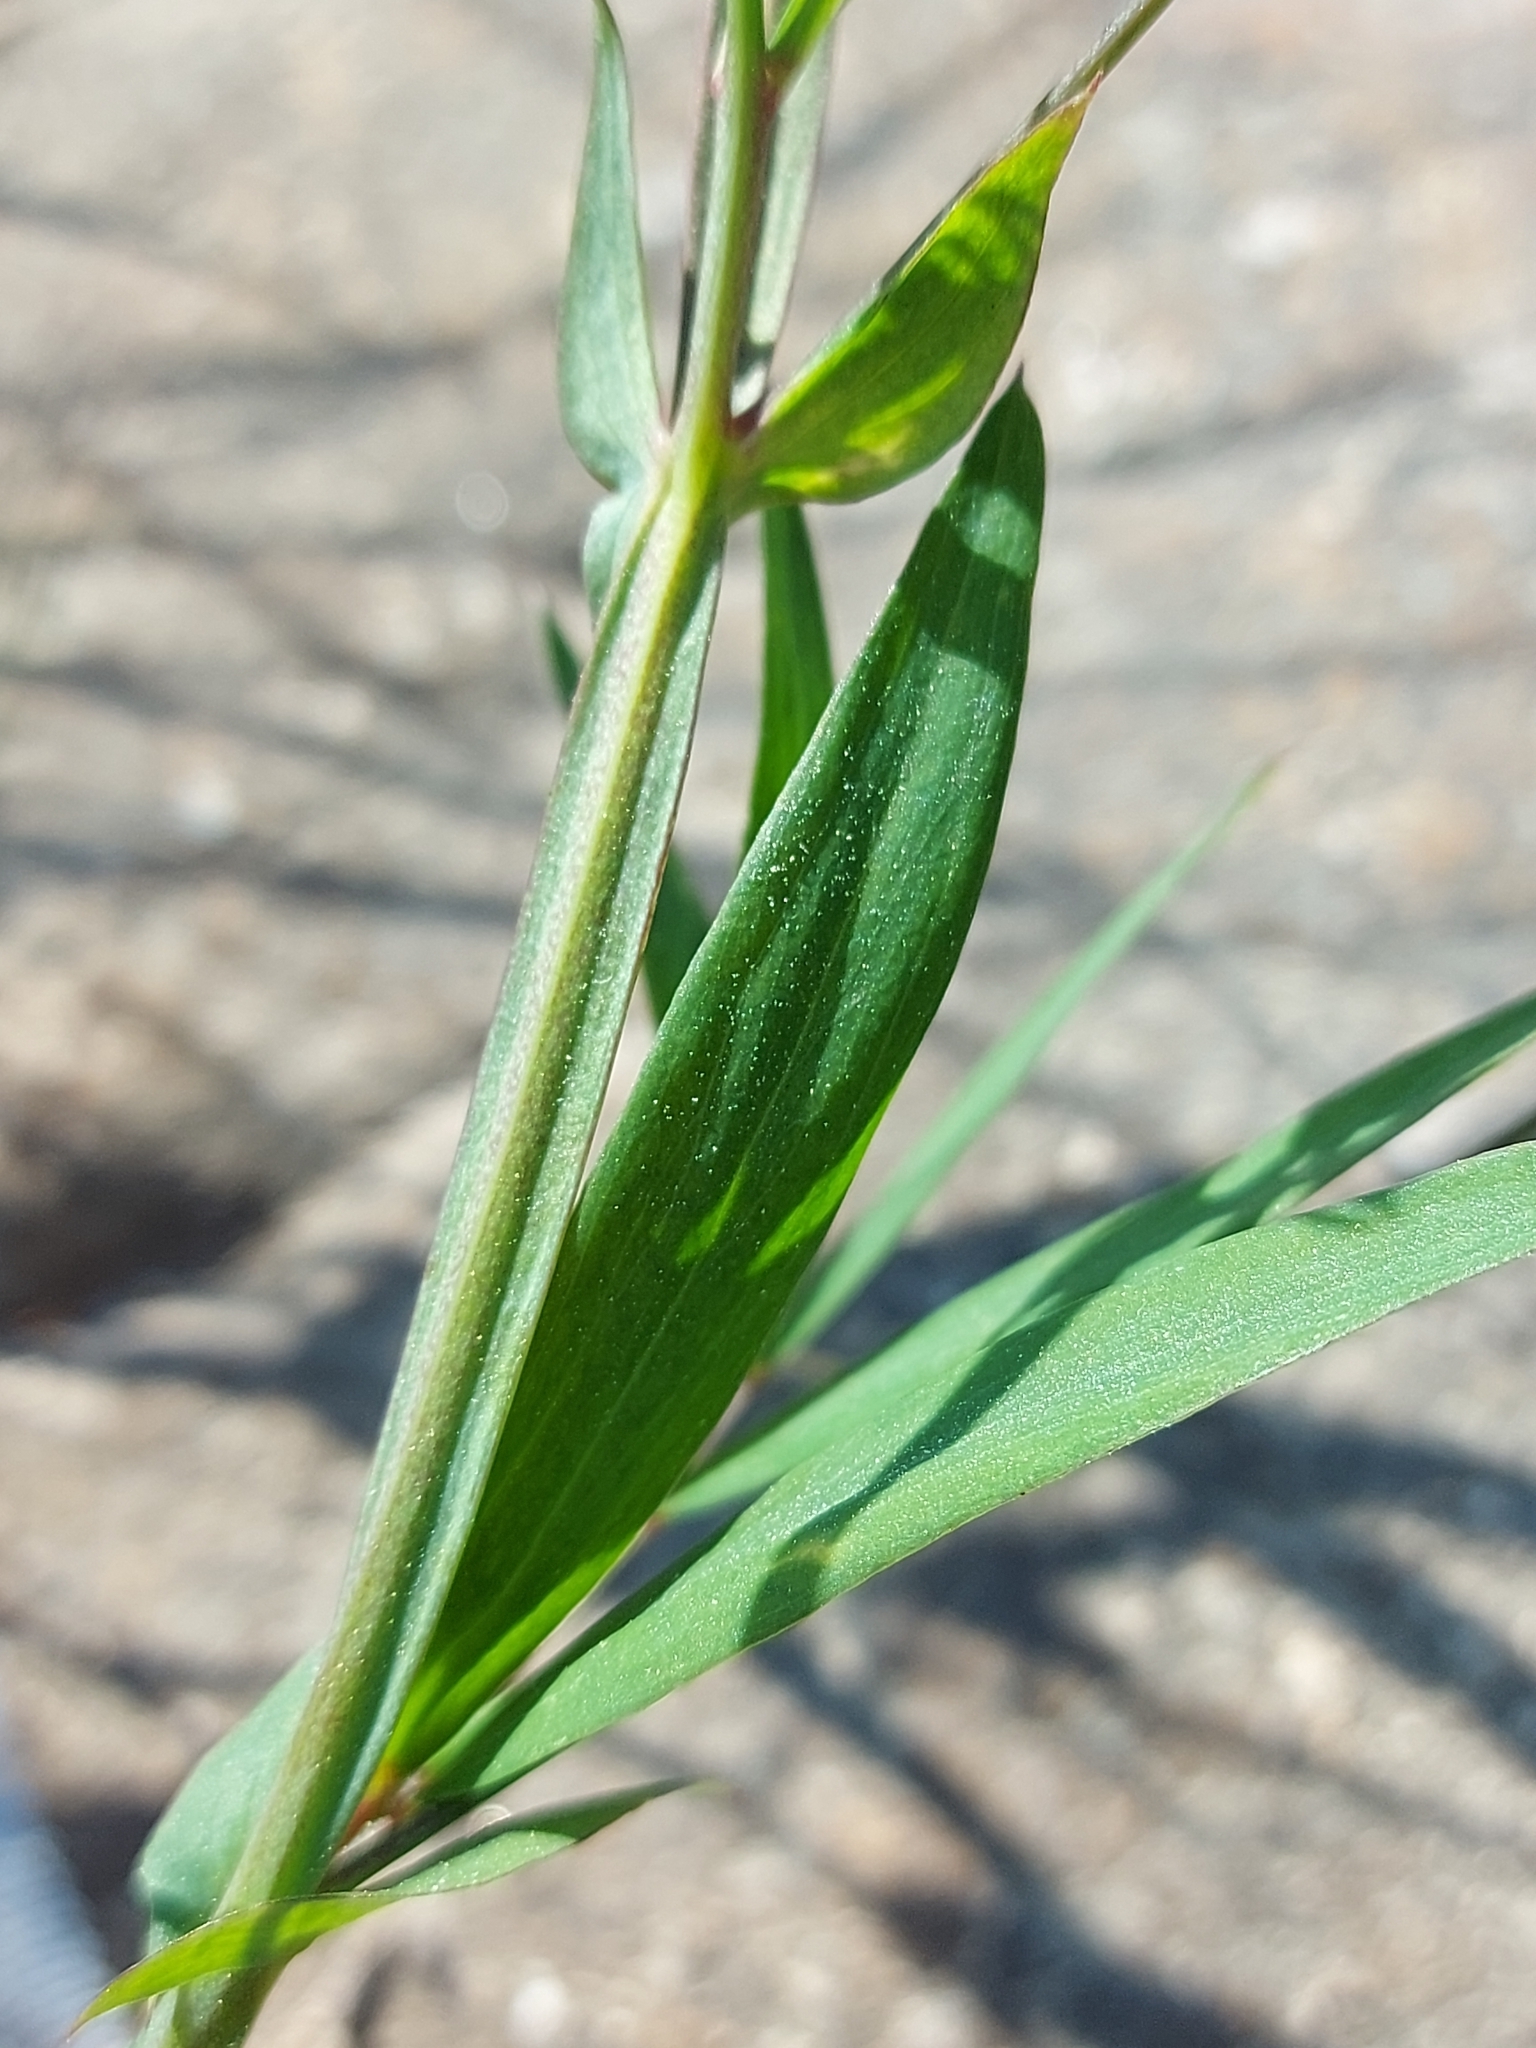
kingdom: Plantae
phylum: Tracheophyta
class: Magnoliopsida
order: Fabales
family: Fabaceae
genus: Lathyrus
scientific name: Lathyrus palustris
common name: Marsh pea
